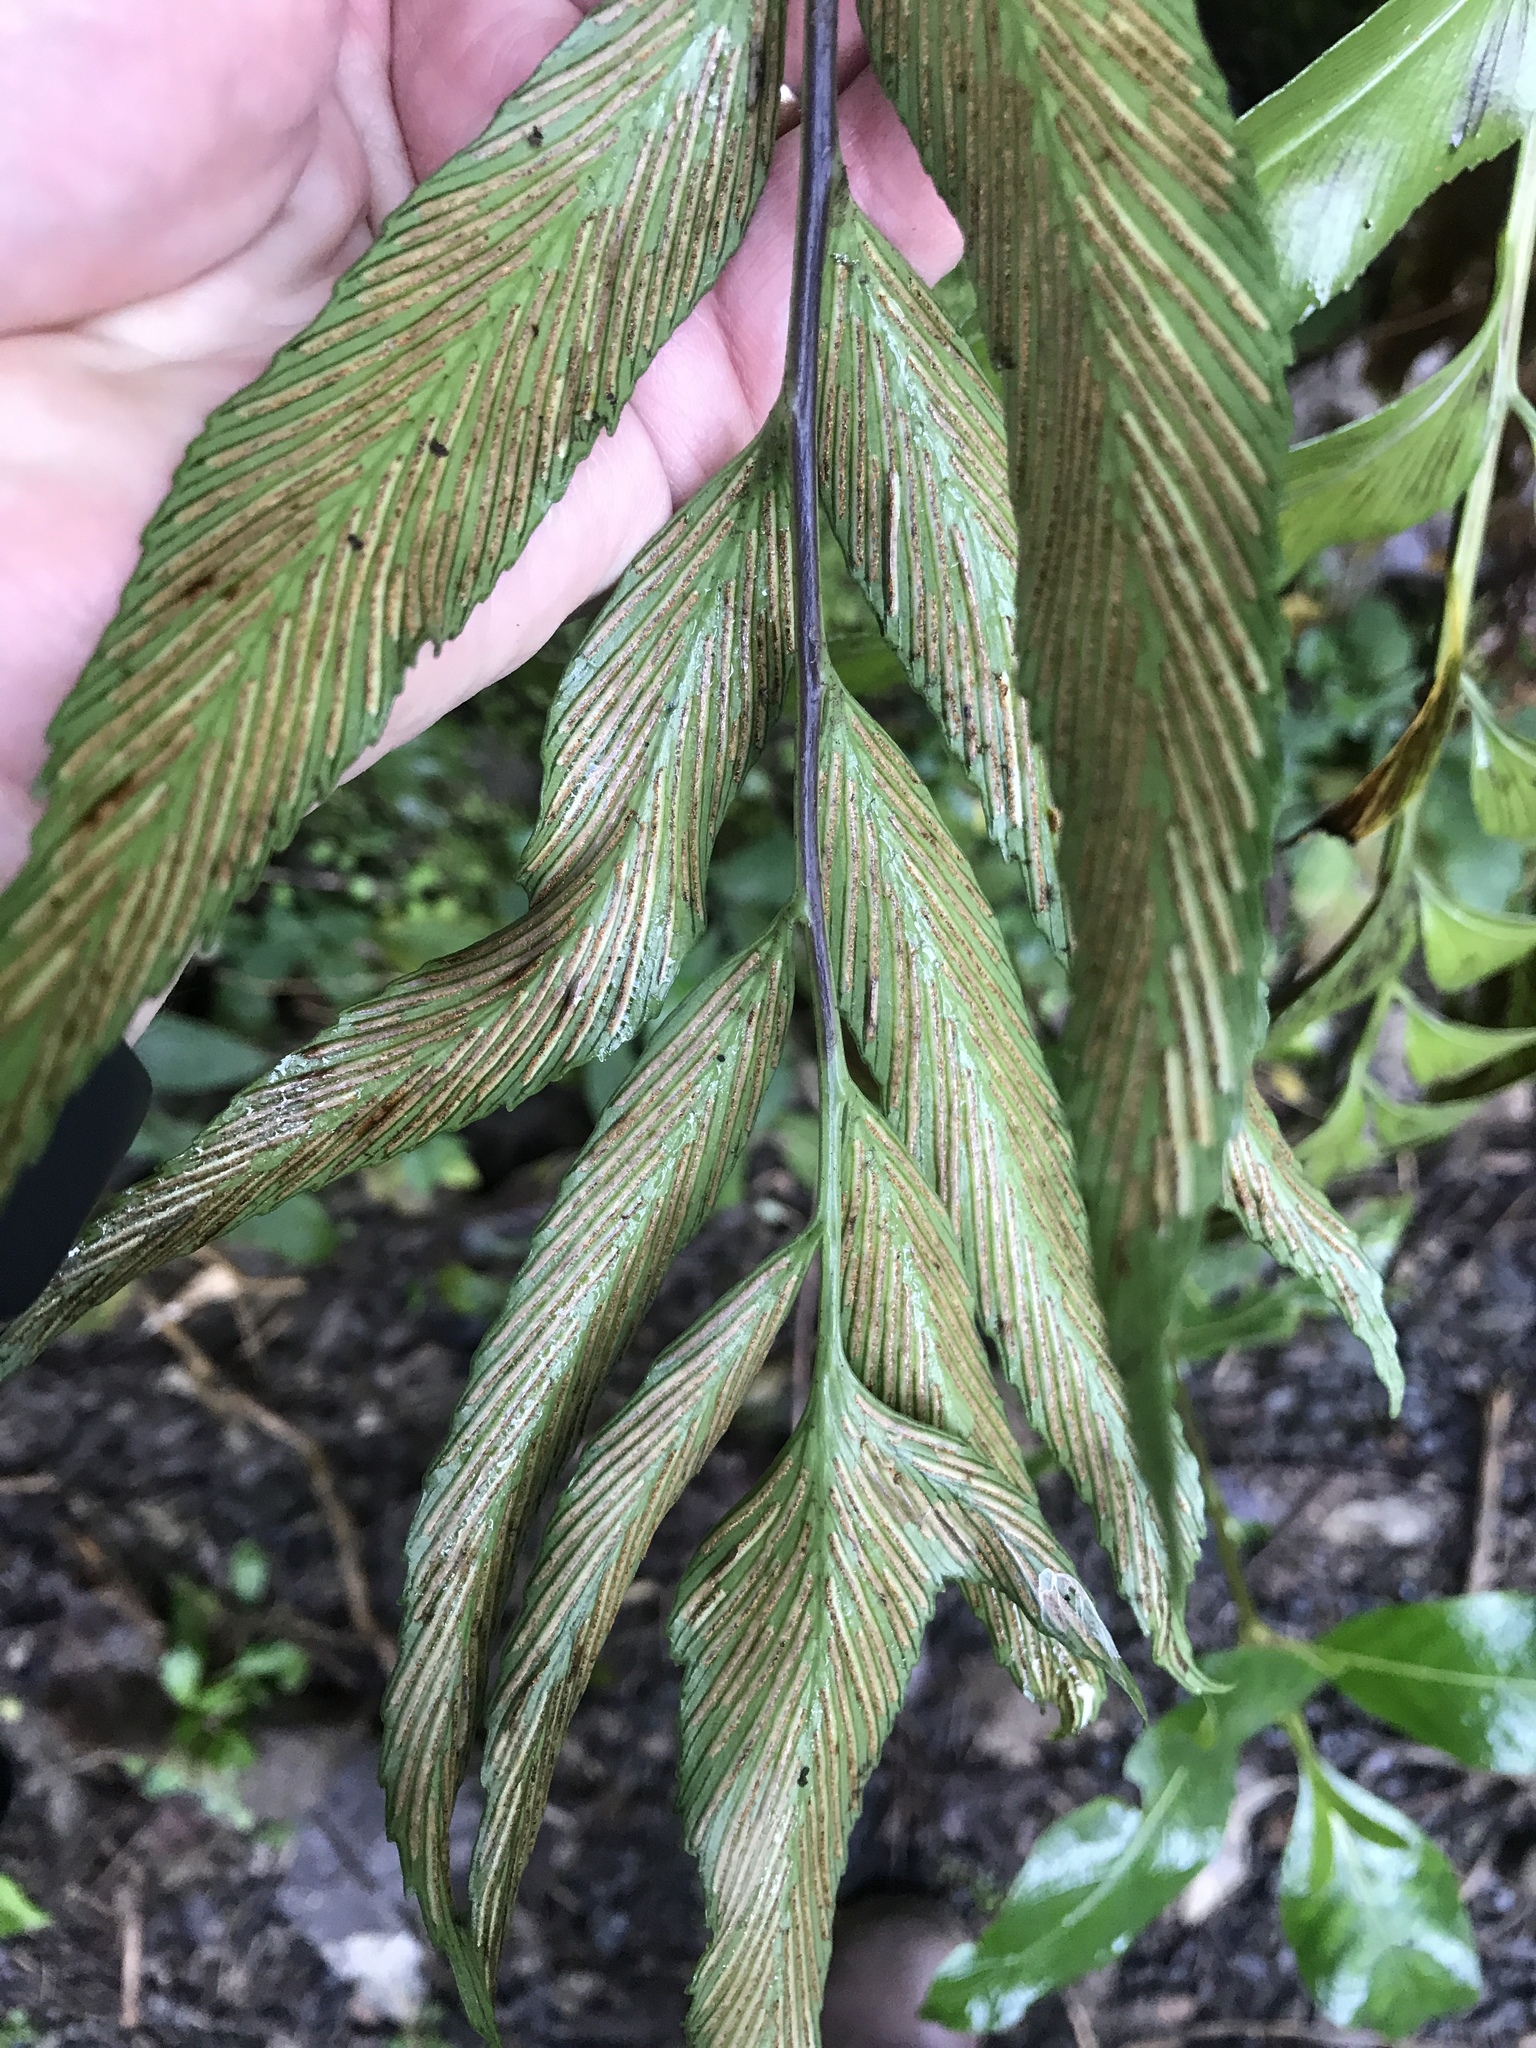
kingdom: Plantae
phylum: Tracheophyta
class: Polypodiopsida
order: Polypodiales
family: Aspleniaceae
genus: Asplenium
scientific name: Asplenium oblongifolium
